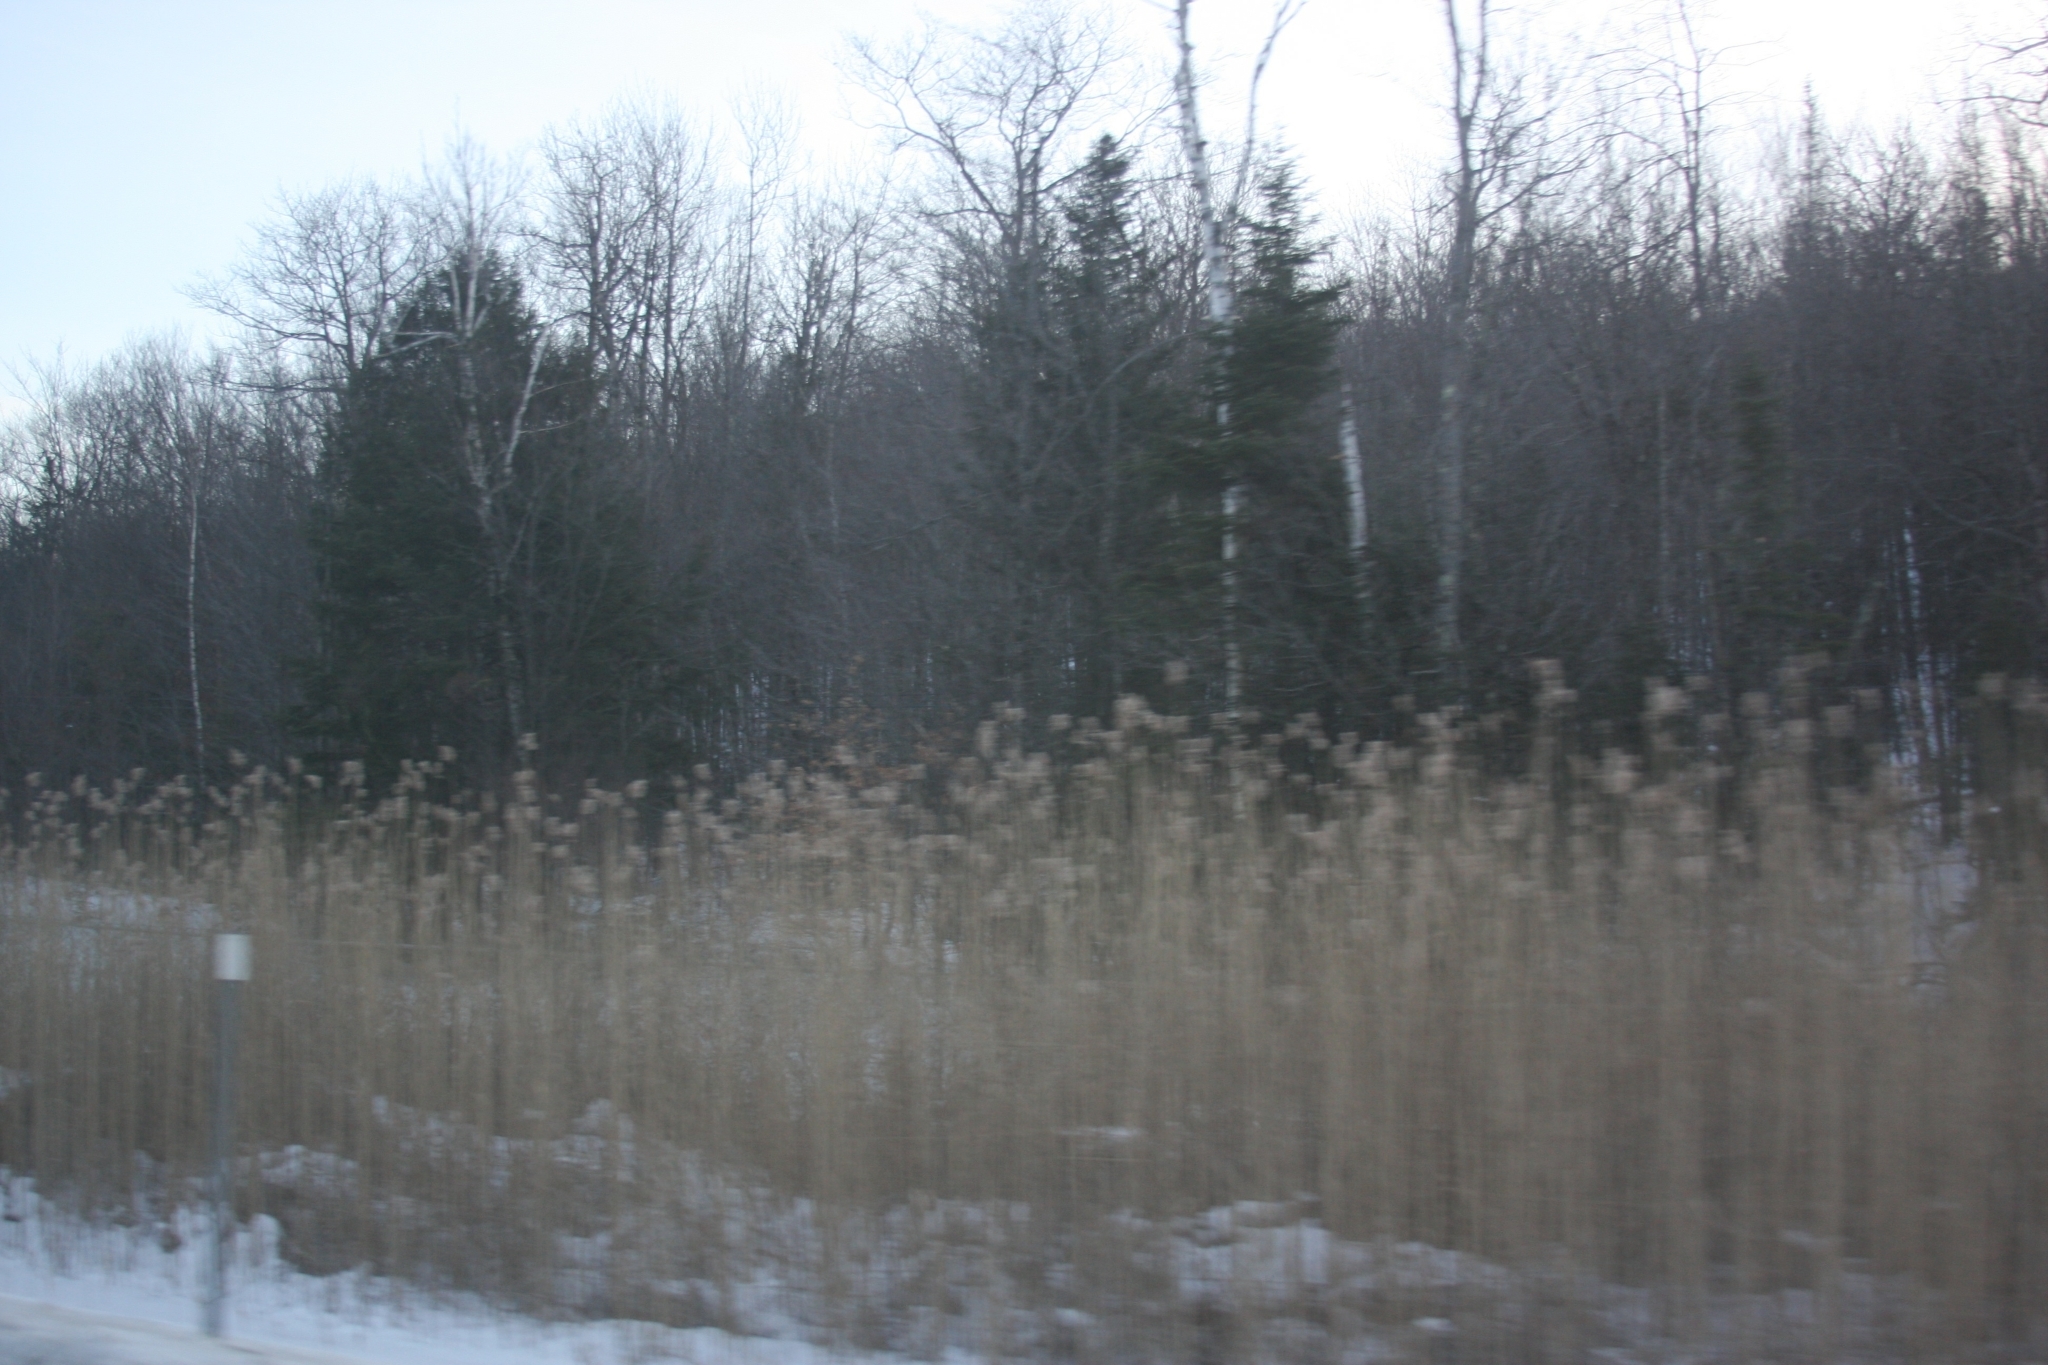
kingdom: Plantae
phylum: Tracheophyta
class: Liliopsida
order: Poales
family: Poaceae
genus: Phragmites
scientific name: Phragmites australis
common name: Common reed
